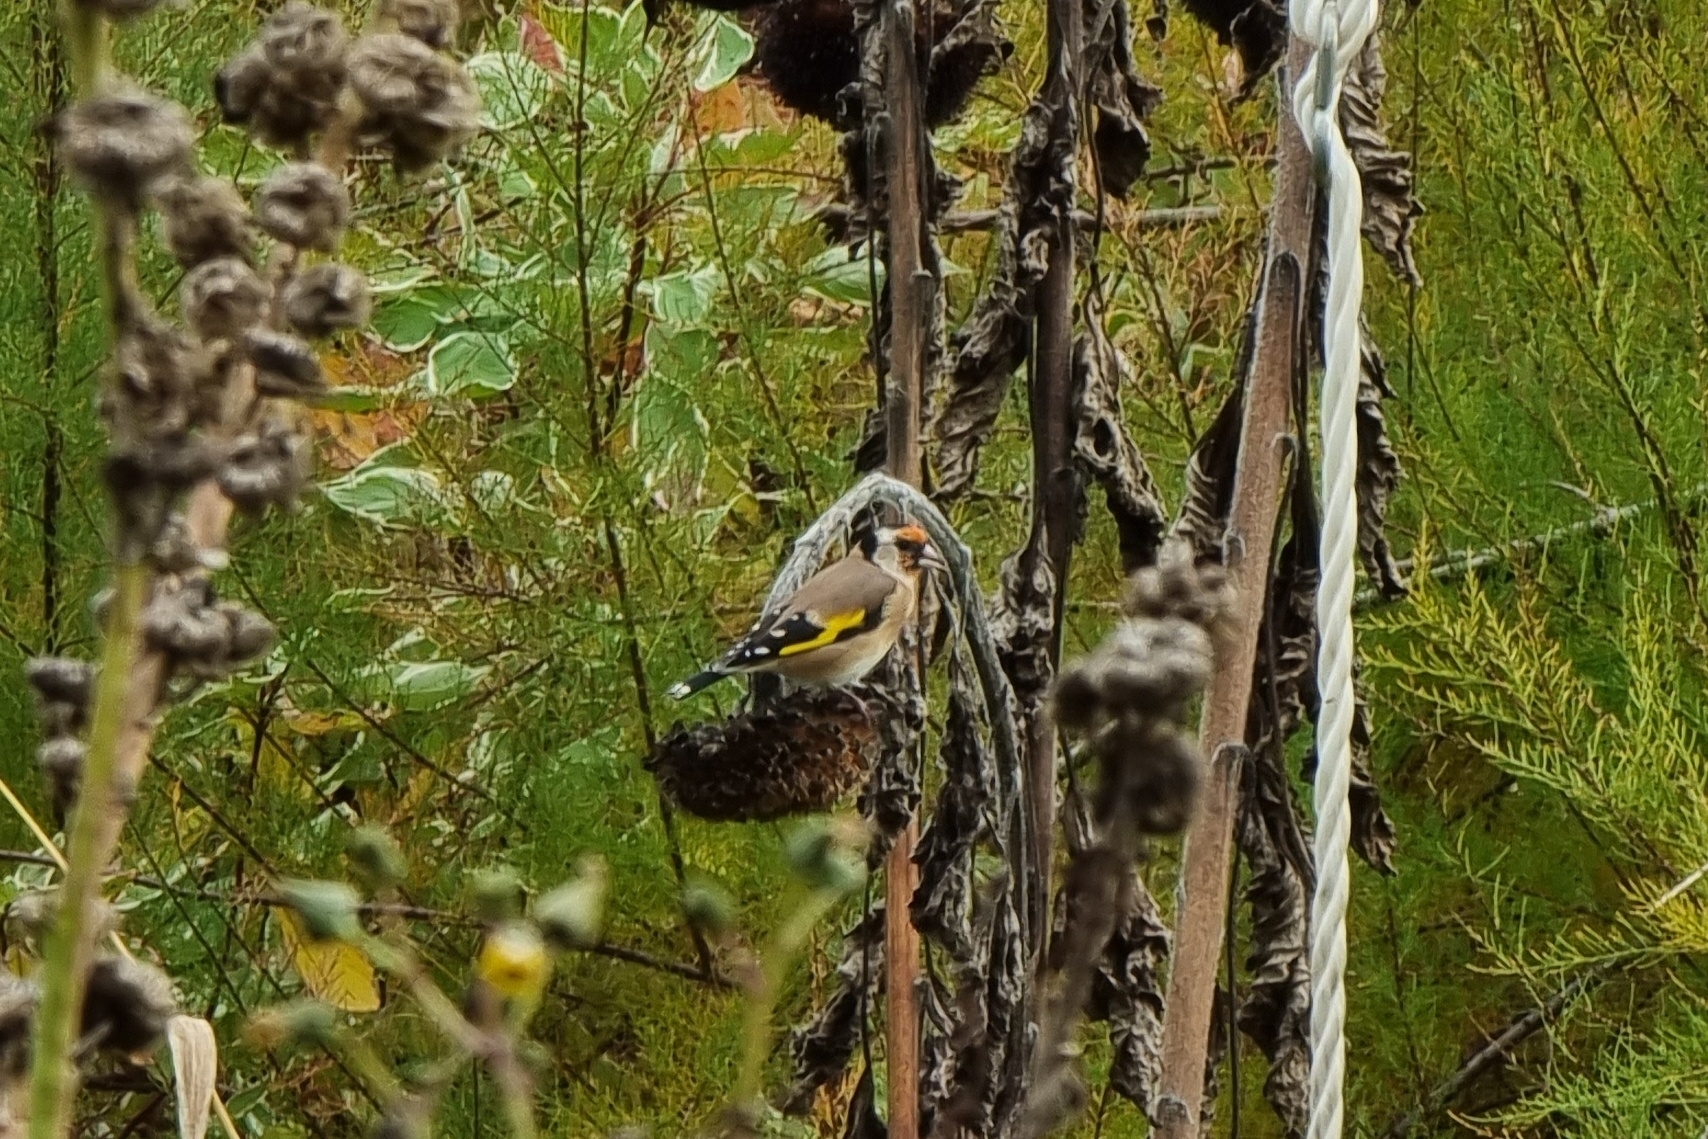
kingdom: Animalia
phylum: Chordata
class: Aves
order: Passeriformes
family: Fringillidae
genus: Carduelis
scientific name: Carduelis carduelis
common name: European goldfinch
